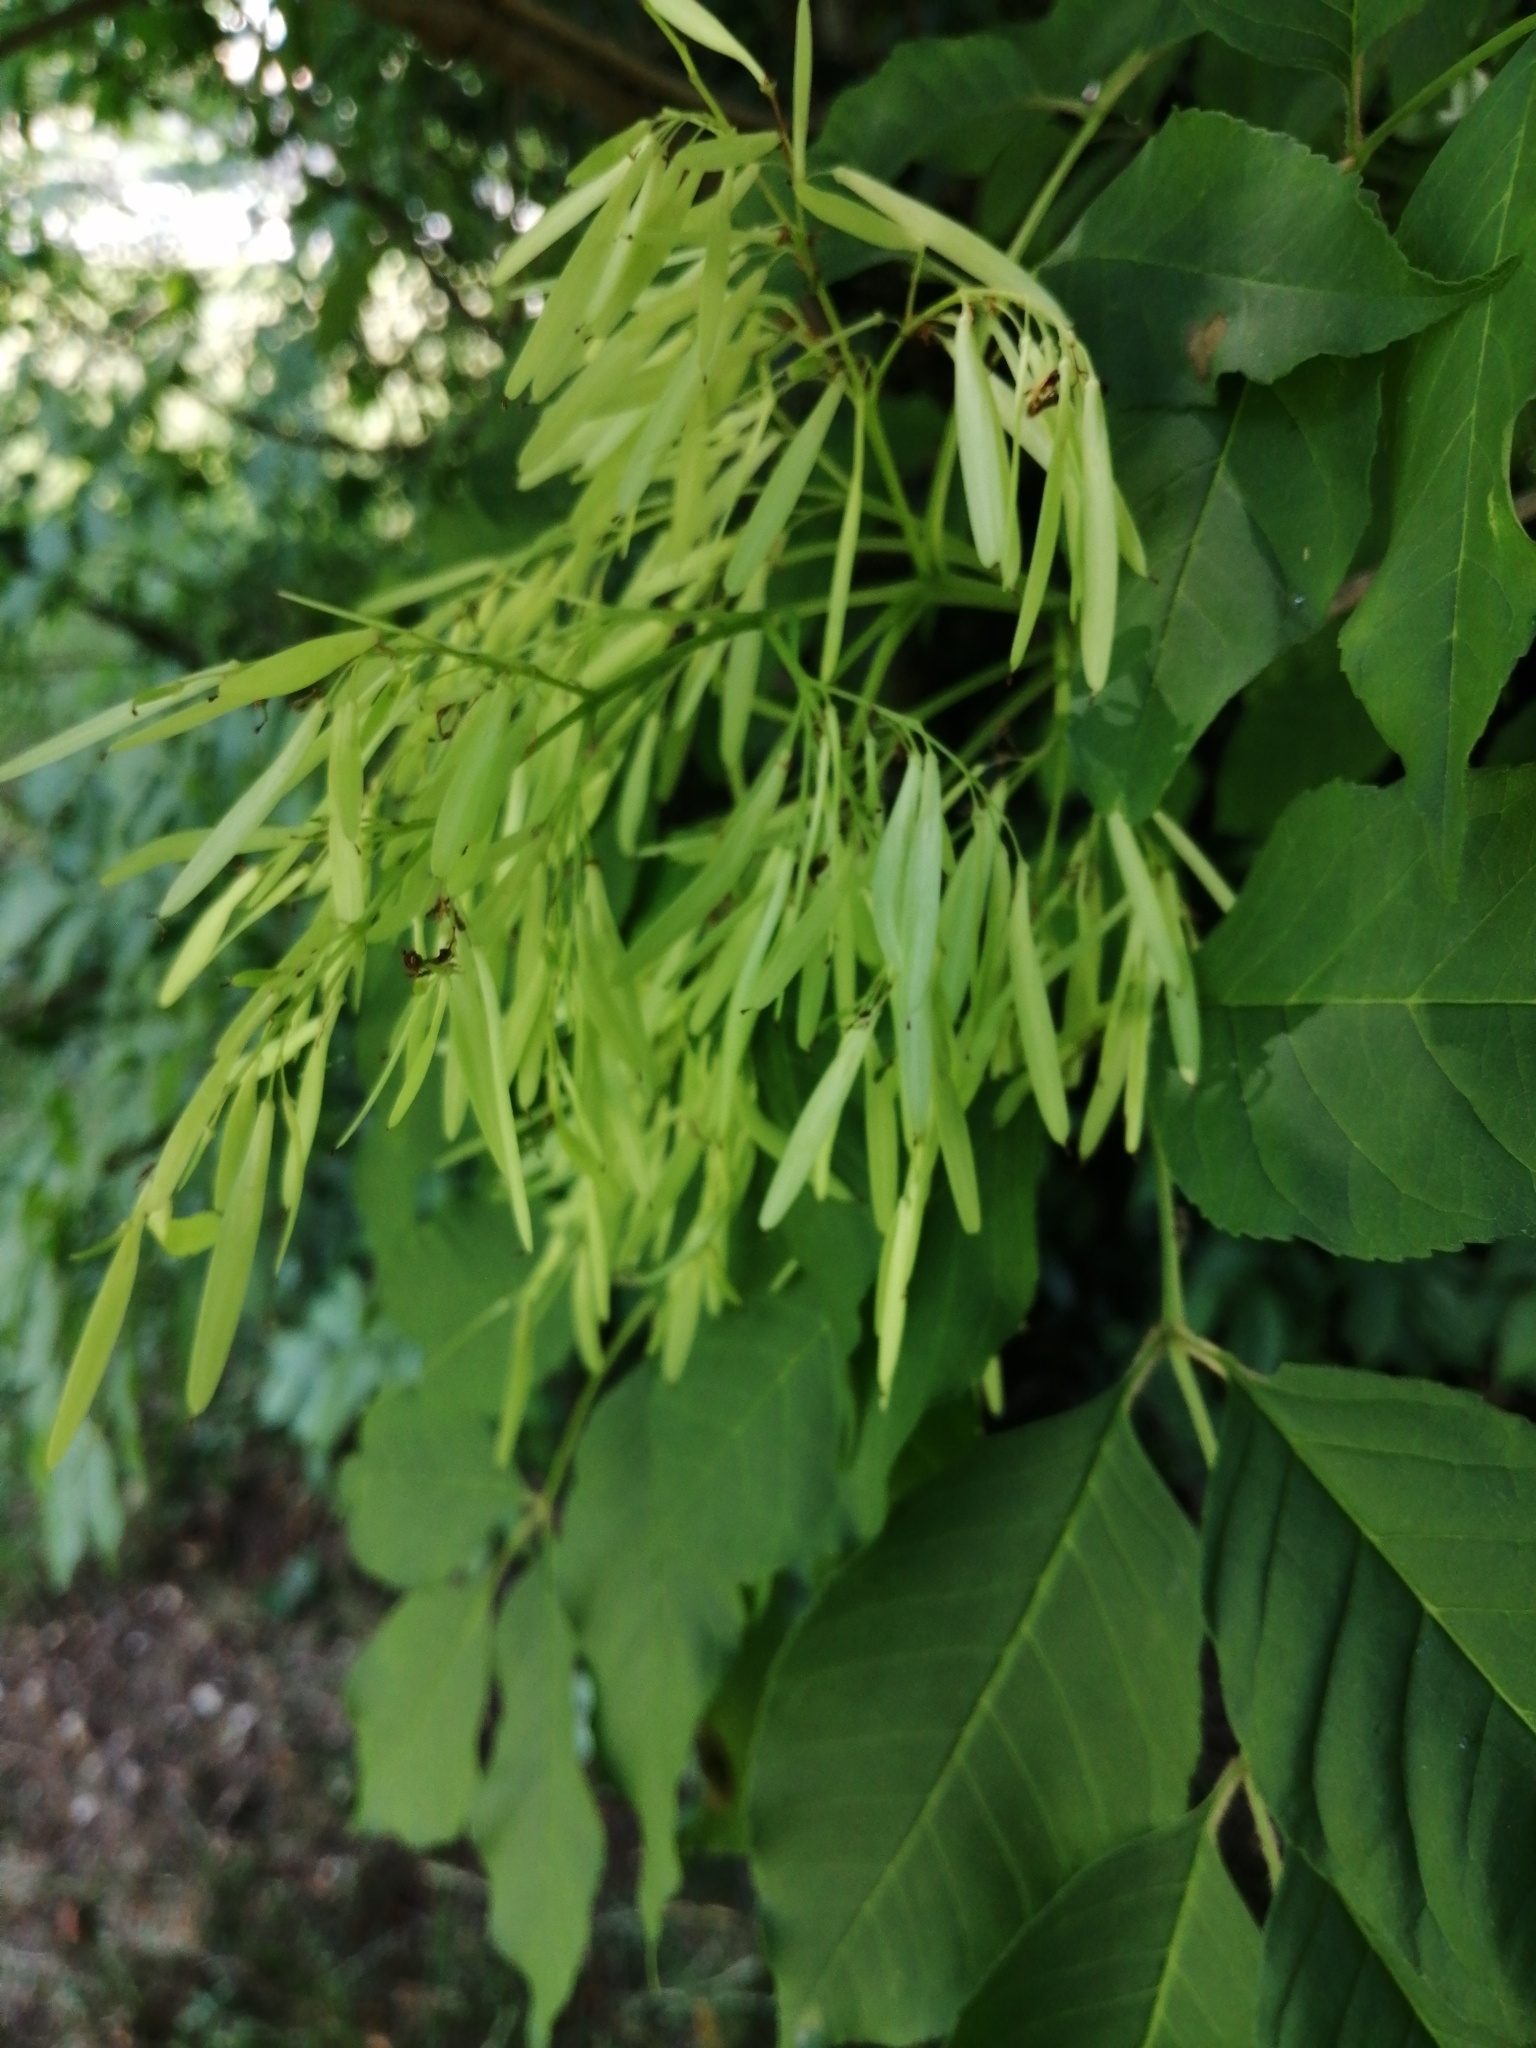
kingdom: Plantae
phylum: Tracheophyta
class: Magnoliopsida
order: Lamiales
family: Oleaceae
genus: Fraxinus
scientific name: Fraxinus ornus
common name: Manna ash
